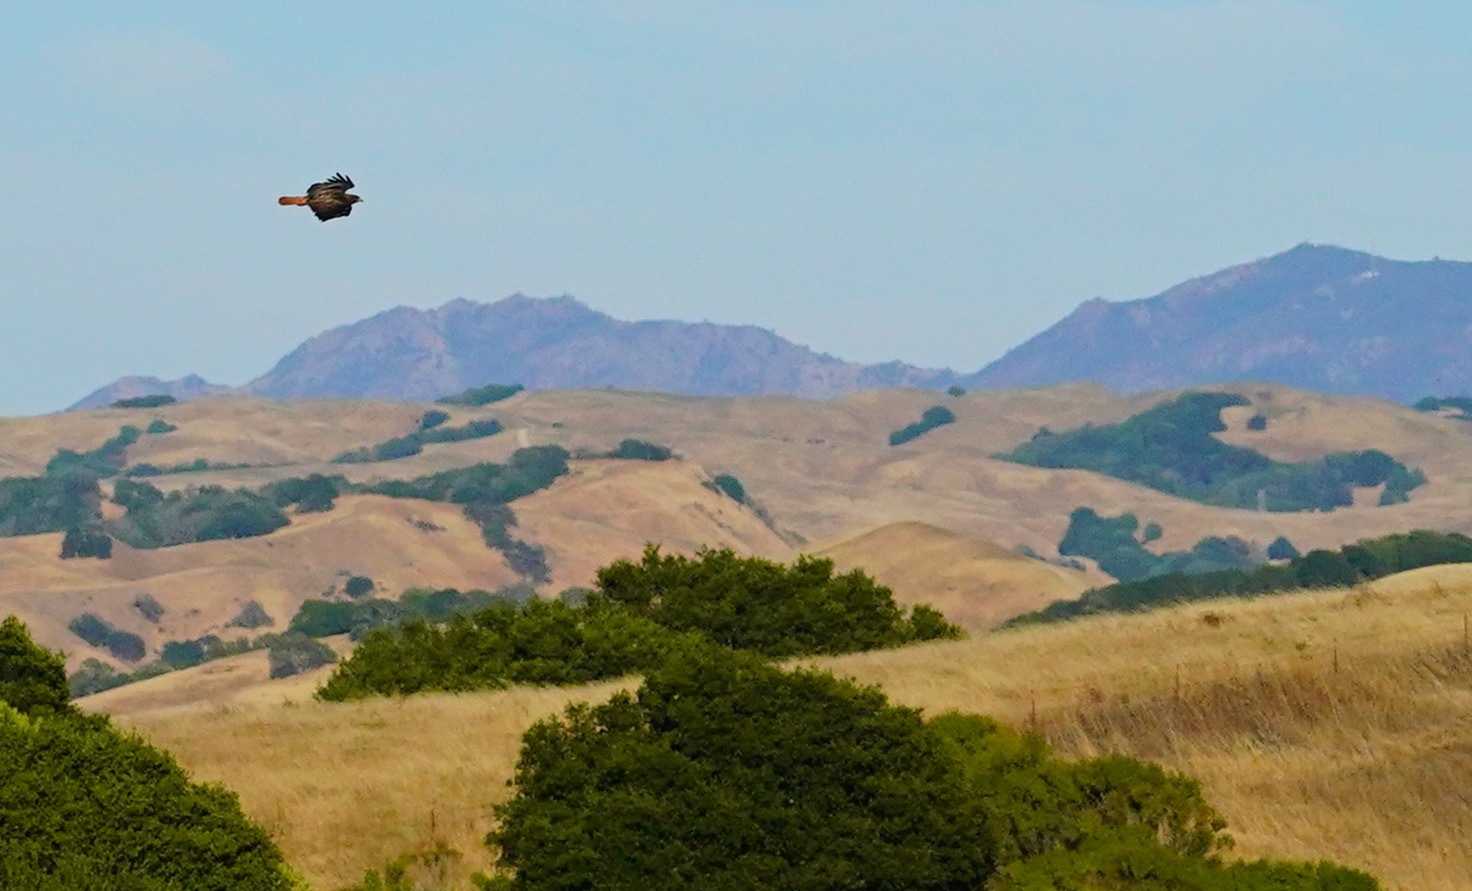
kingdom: Animalia
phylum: Chordata
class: Aves
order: Accipitriformes
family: Accipitridae
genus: Buteo
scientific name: Buteo jamaicensis
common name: Red-tailed hawk
